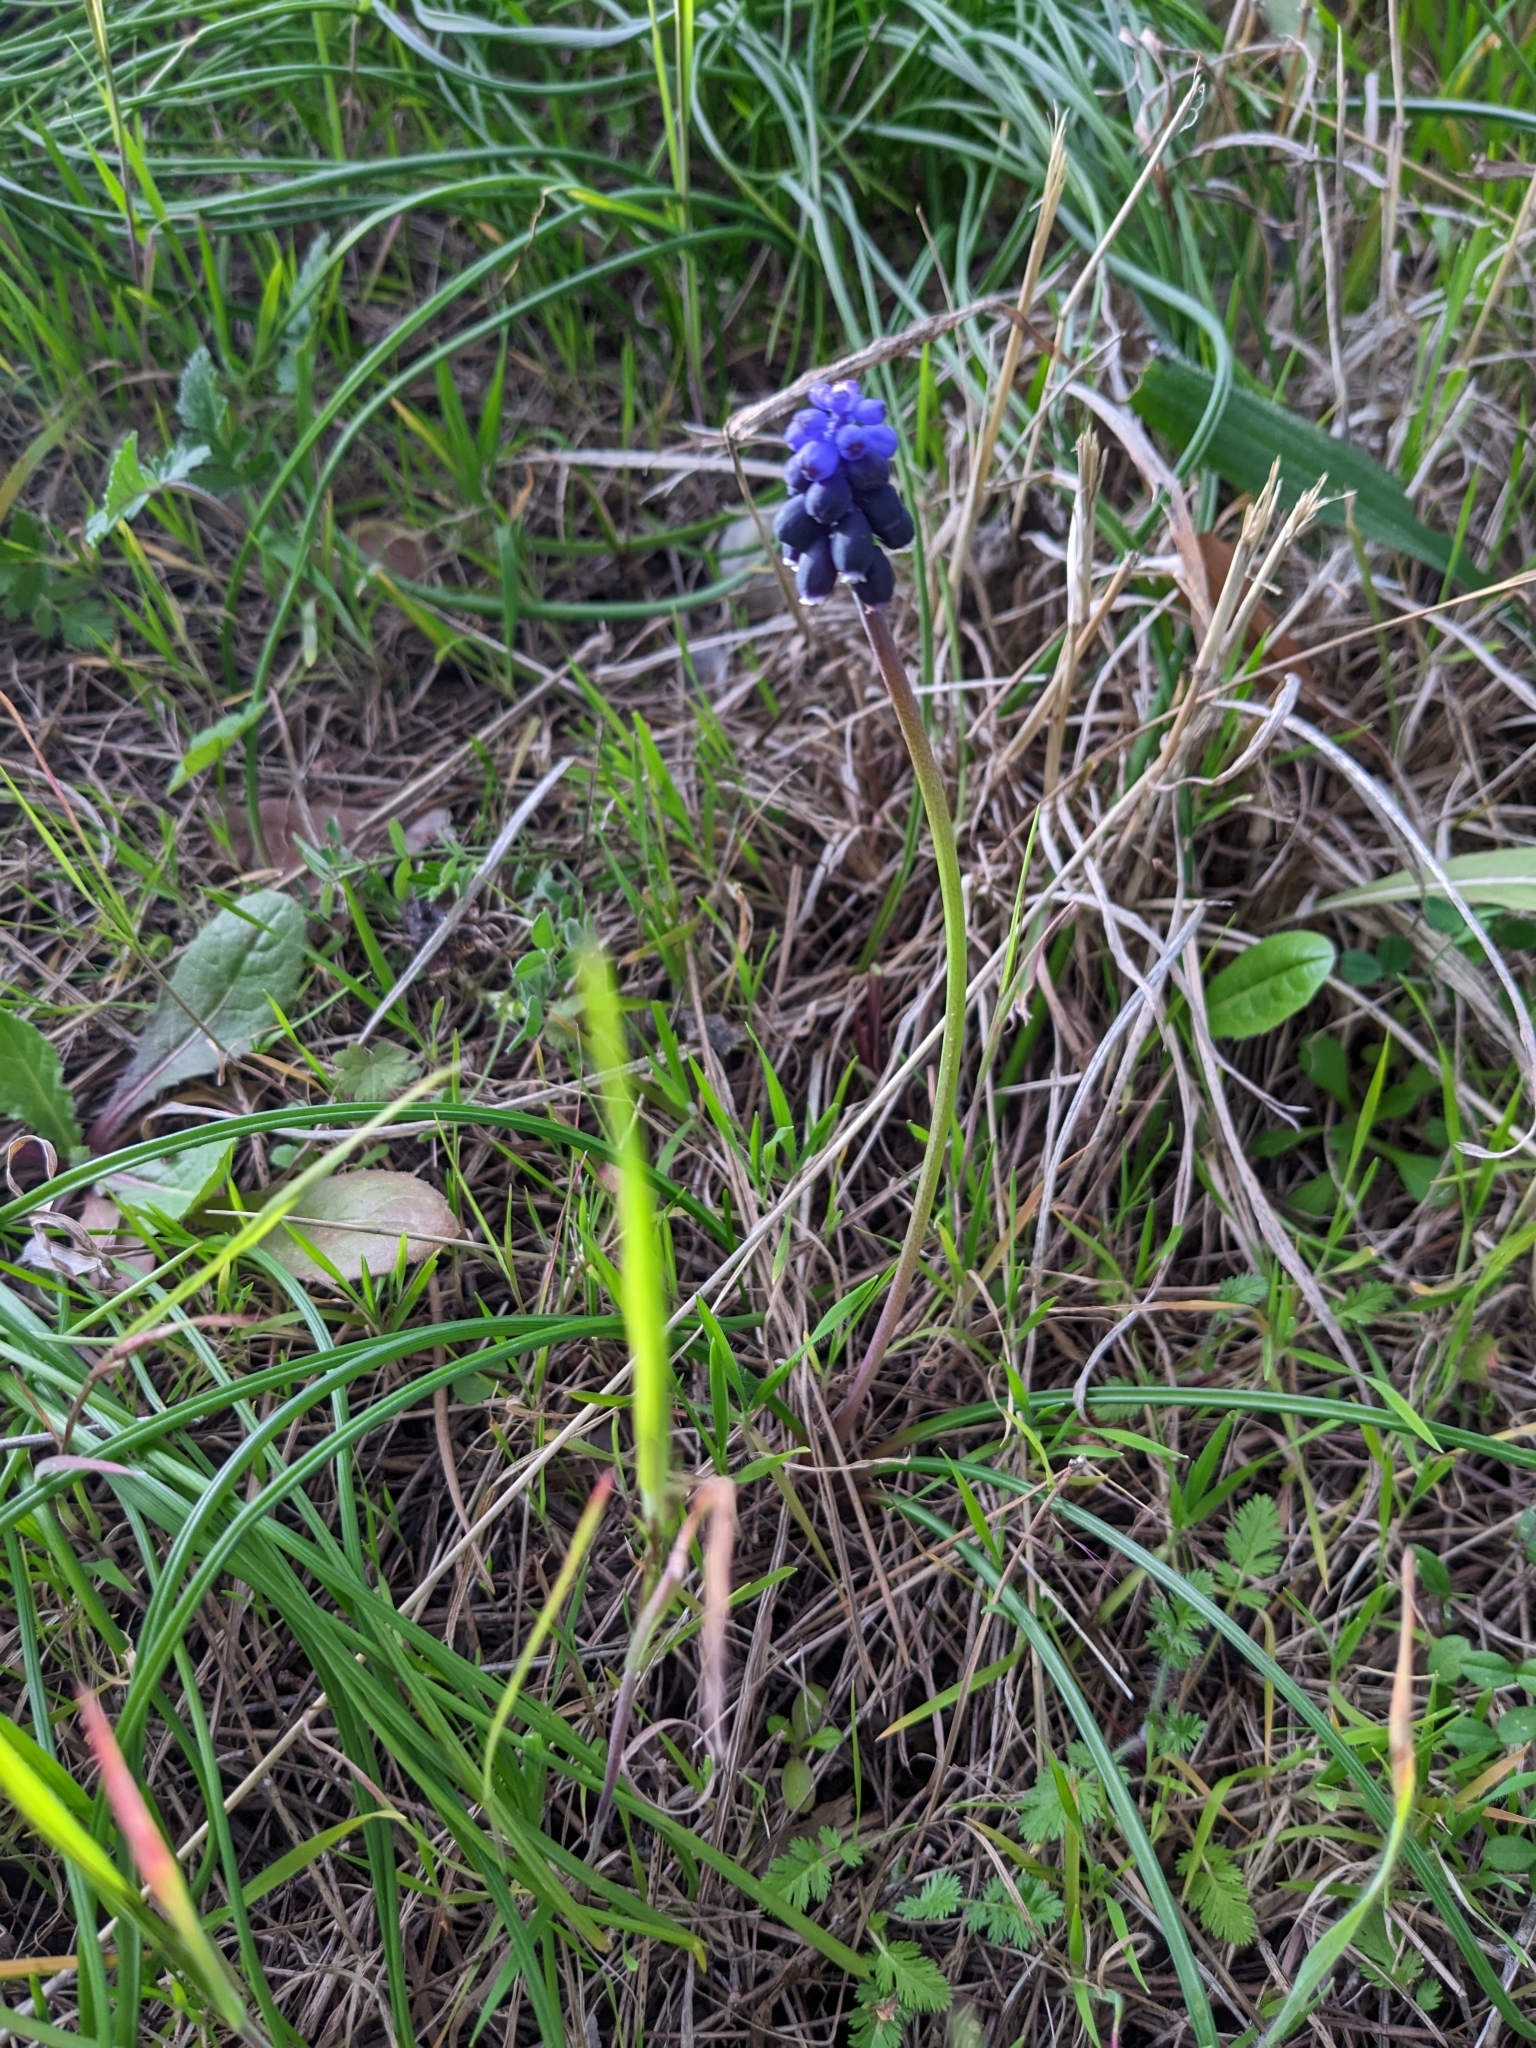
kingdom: Plantae
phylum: Tracheophyta
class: Liliopsida
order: Asparagales
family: Asparagaceae
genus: Muscari
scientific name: Muscari neglectum
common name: Grape-hyacinth
